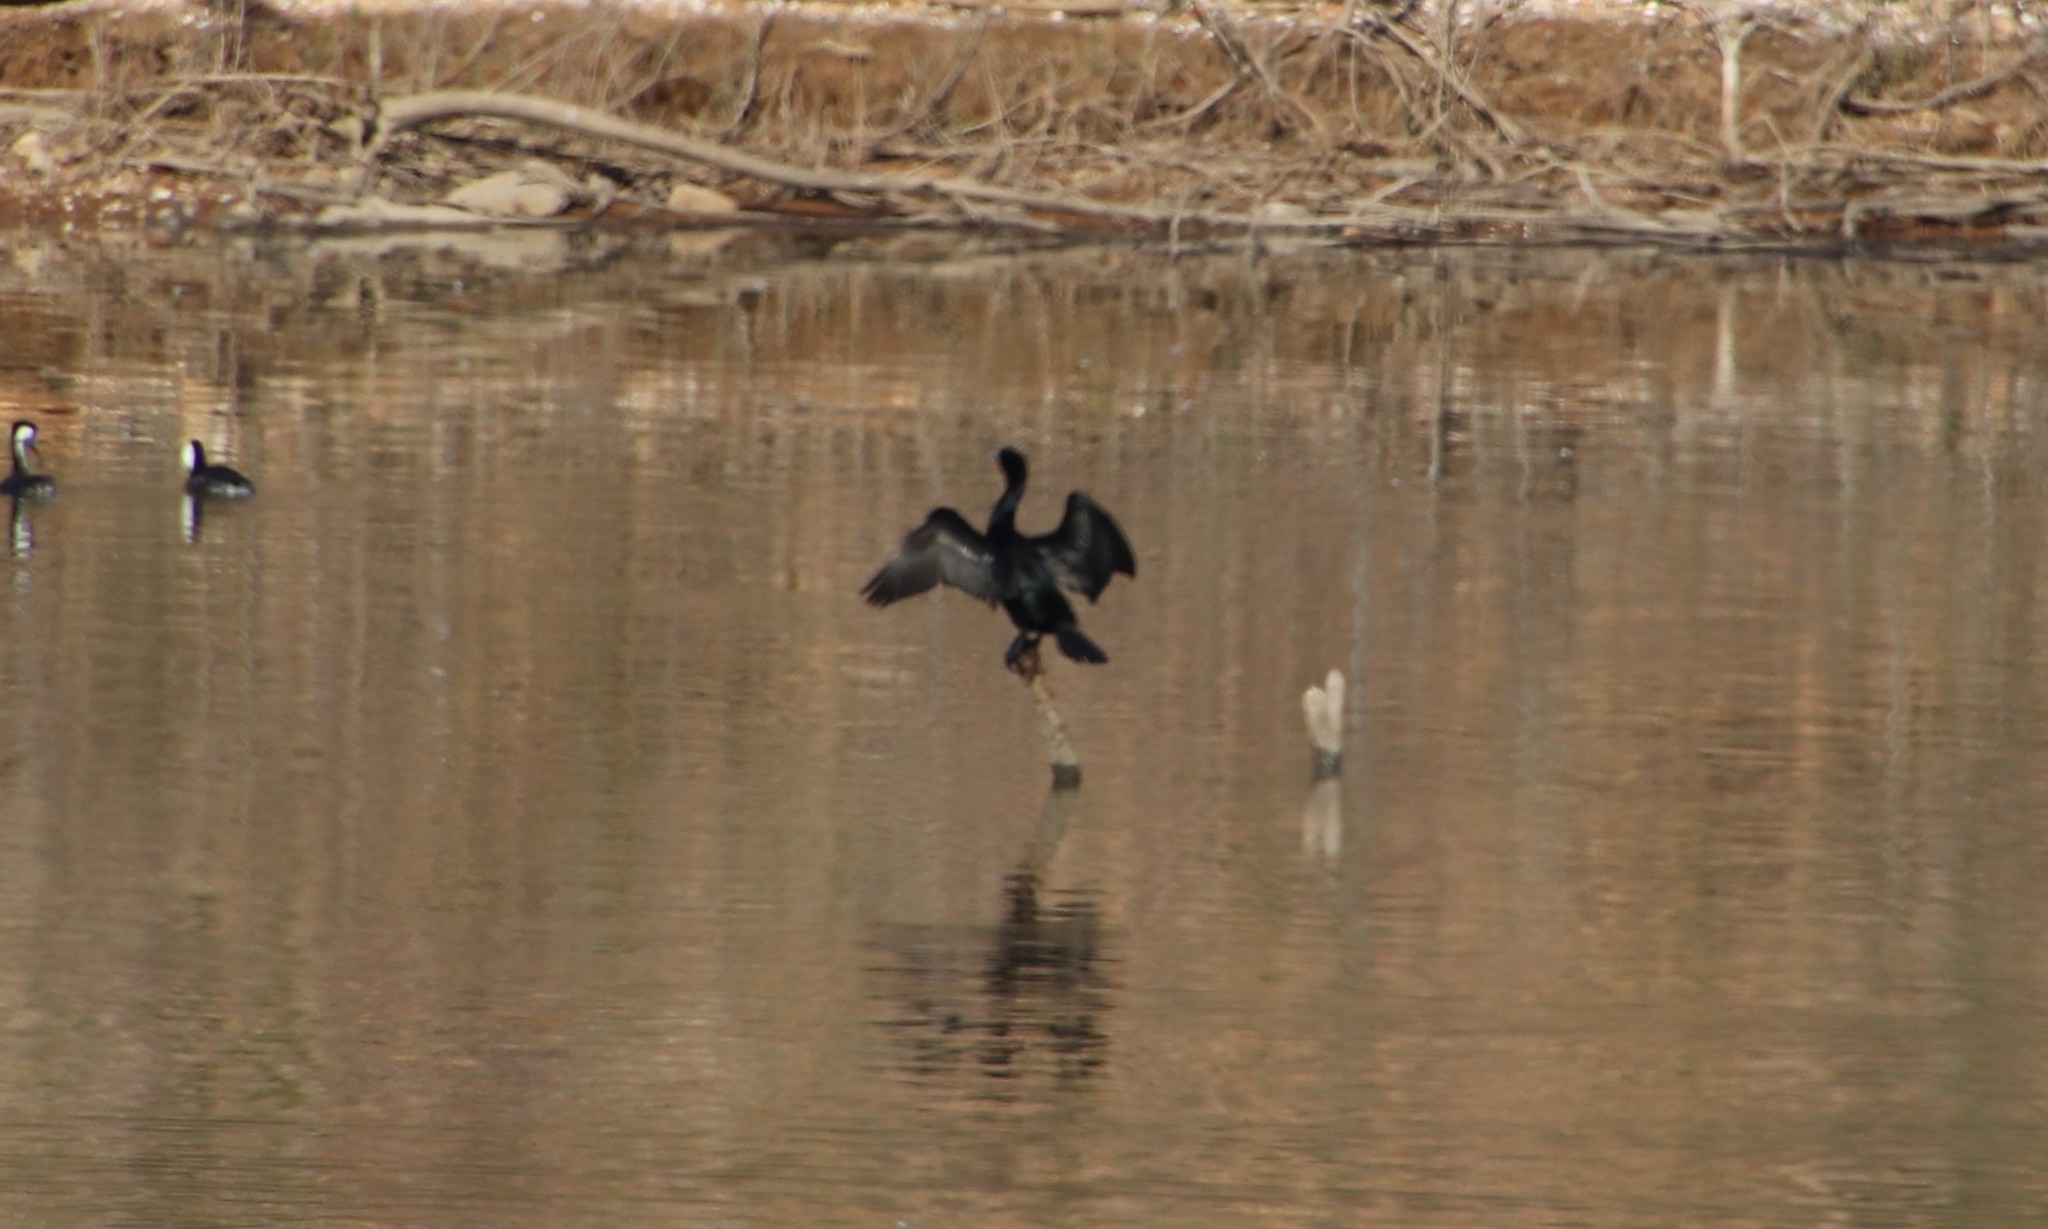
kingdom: Animalia
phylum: Chordata
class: Aves
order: Suliformes
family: Phalacrocoracidae
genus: Phalacrocorax
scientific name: Phalacrocorax auritus
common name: Double-crested cormorant
